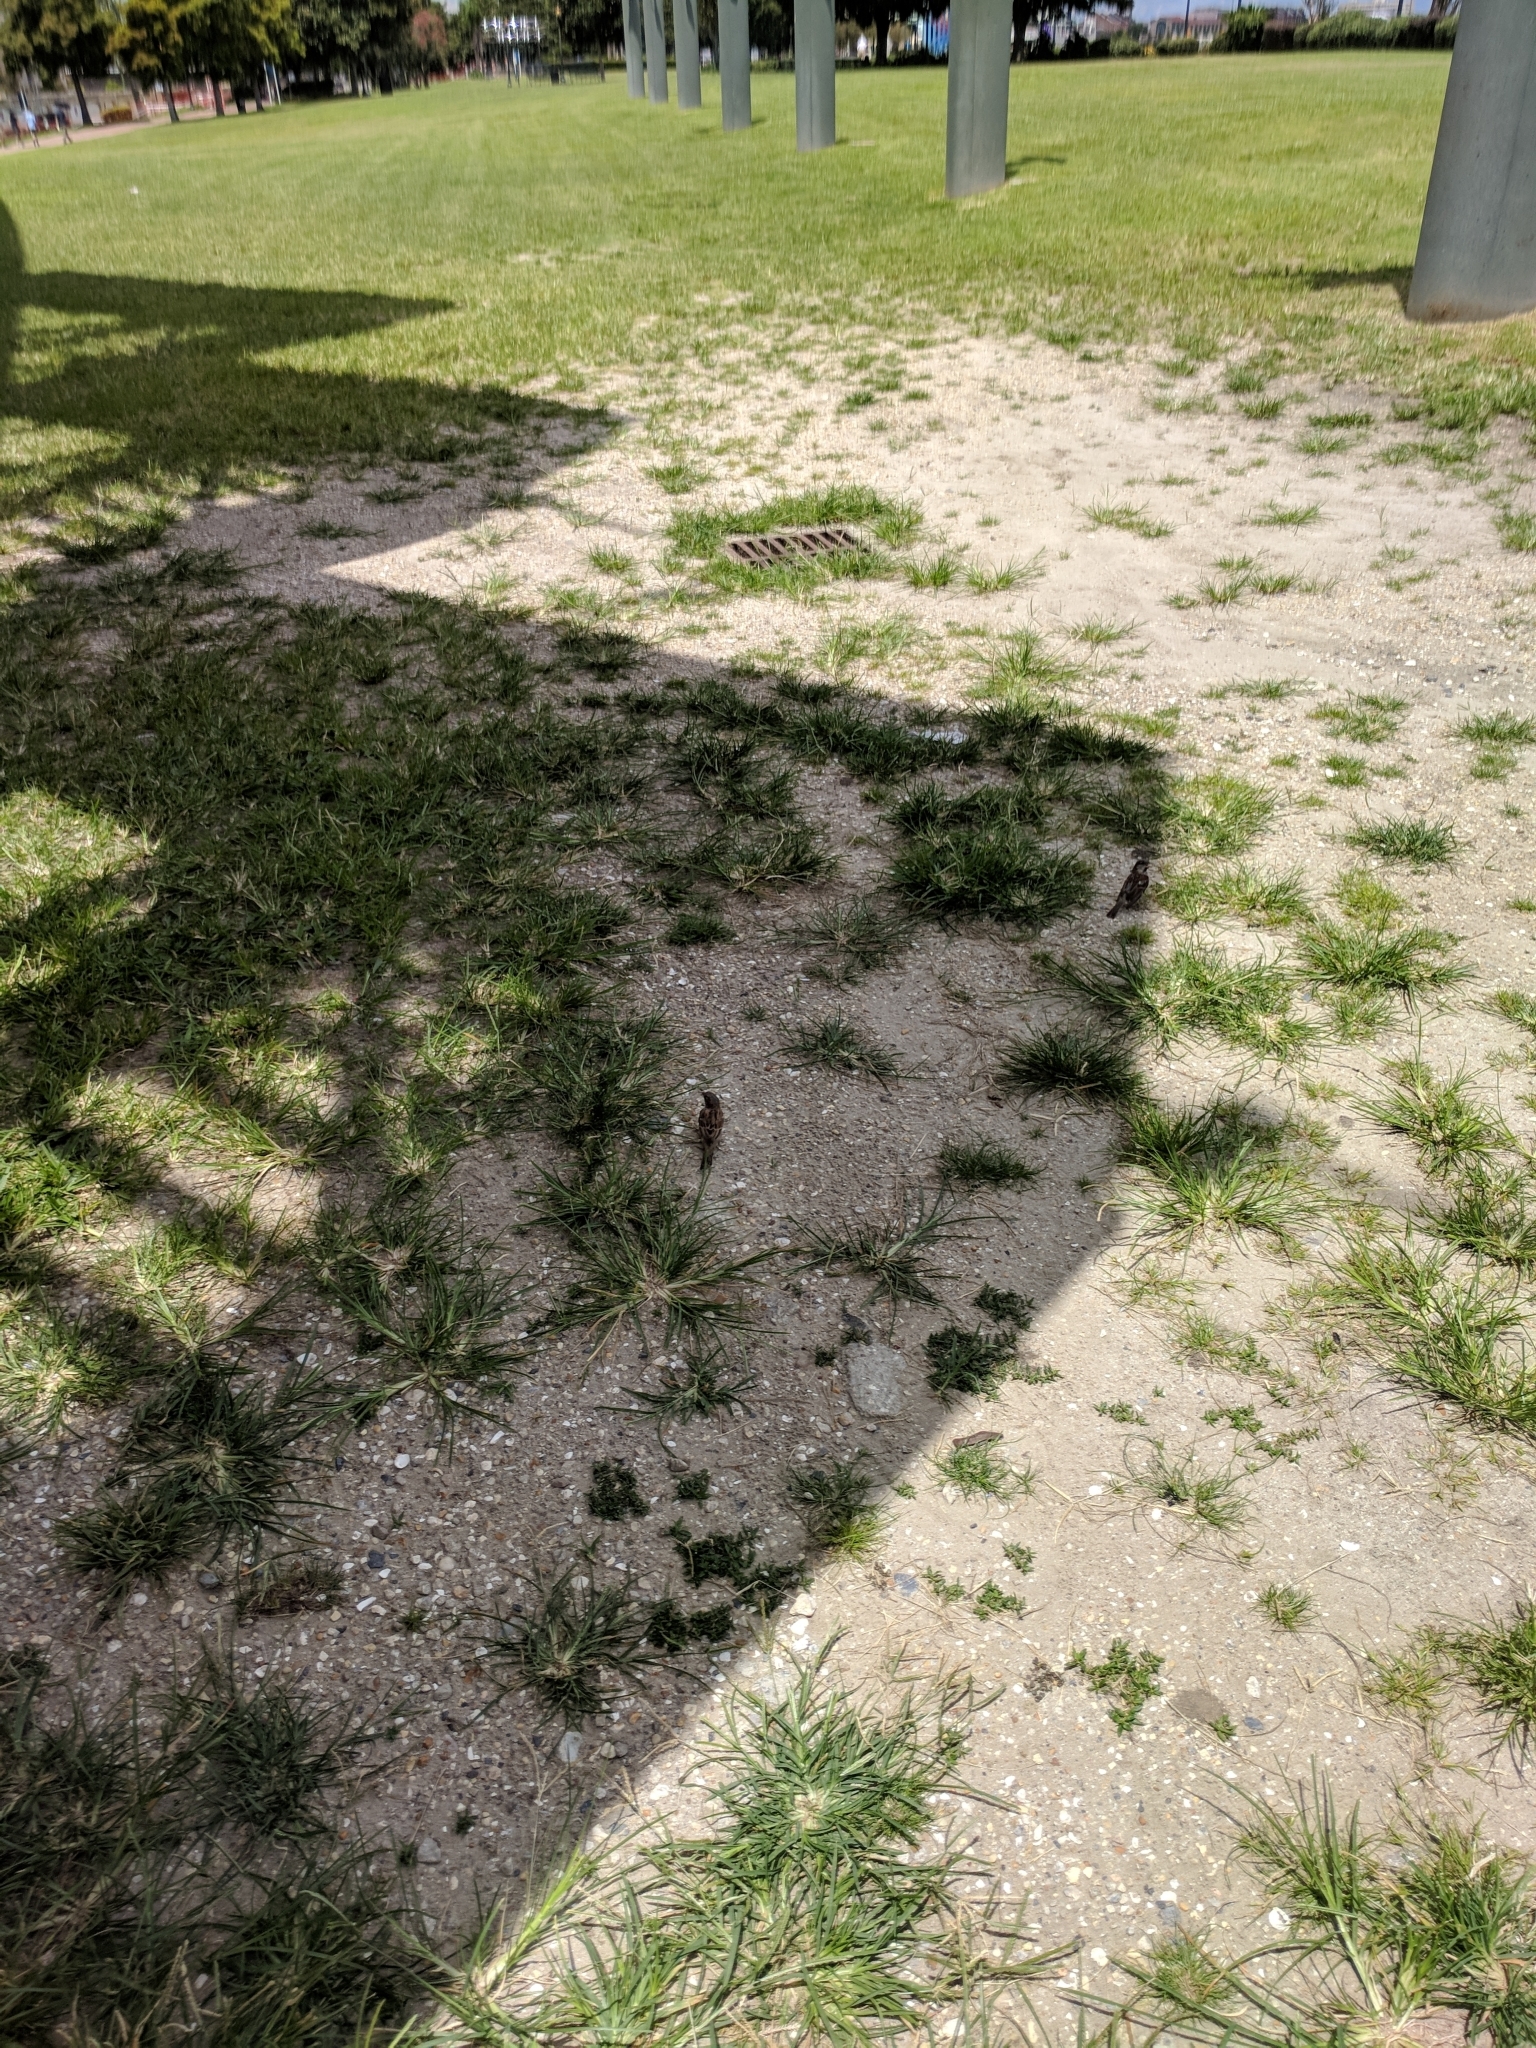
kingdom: Animalia
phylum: Chordata
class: Aves
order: Passeriformes
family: Passeridae
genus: Passer
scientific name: Passer domesticus
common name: House sparrow
